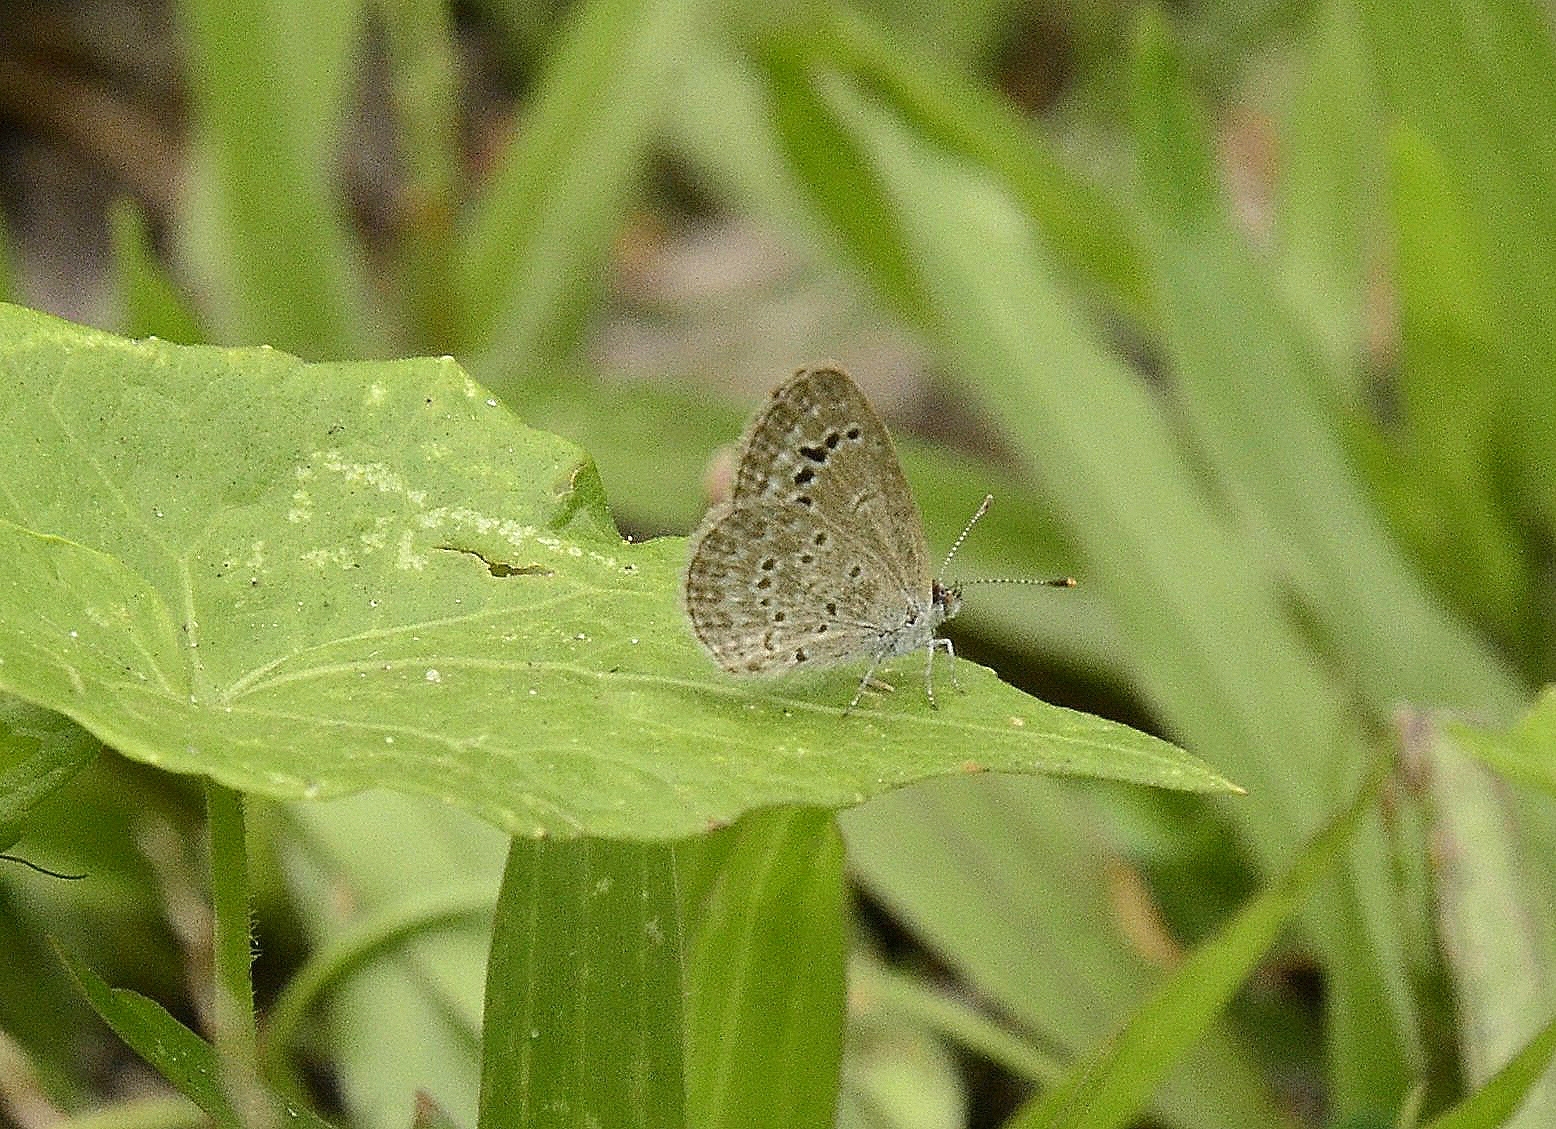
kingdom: Animalia
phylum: Arthropoda
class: Insecta
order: Lepidoptera
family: Lycaenidae
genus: Zizina
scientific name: Zizina otis
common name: Lesser grass blue
